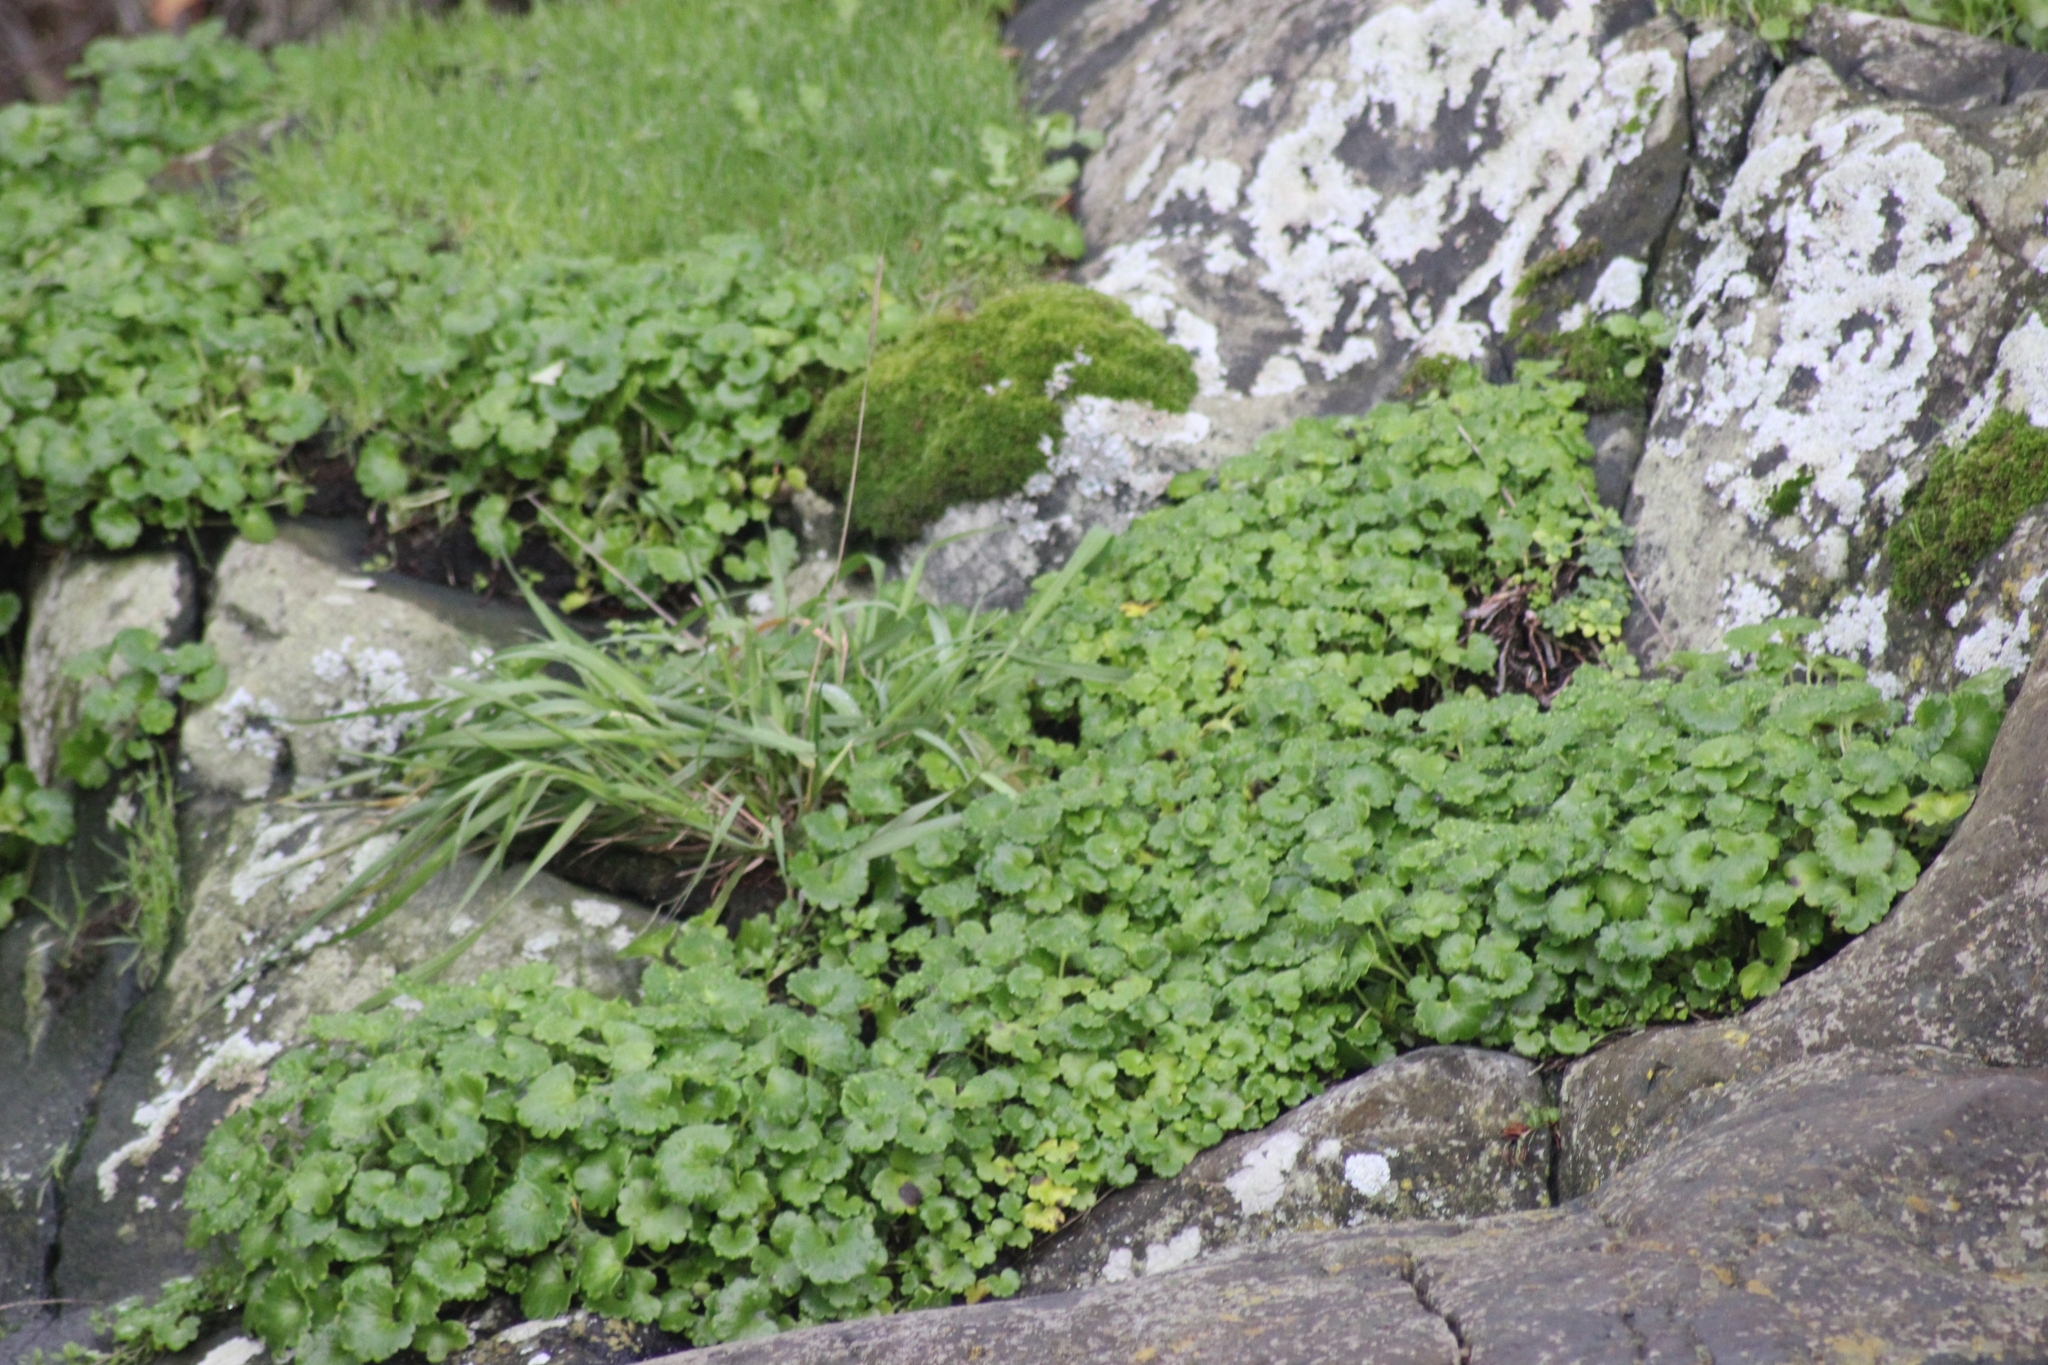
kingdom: Plantae
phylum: Tracheophyta
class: Magnoliopsida
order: Boraginales
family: Hydrophyllaceae
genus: Romanzoffia
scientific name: Romanzoffia tracyi
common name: Tracy's mistmaid
